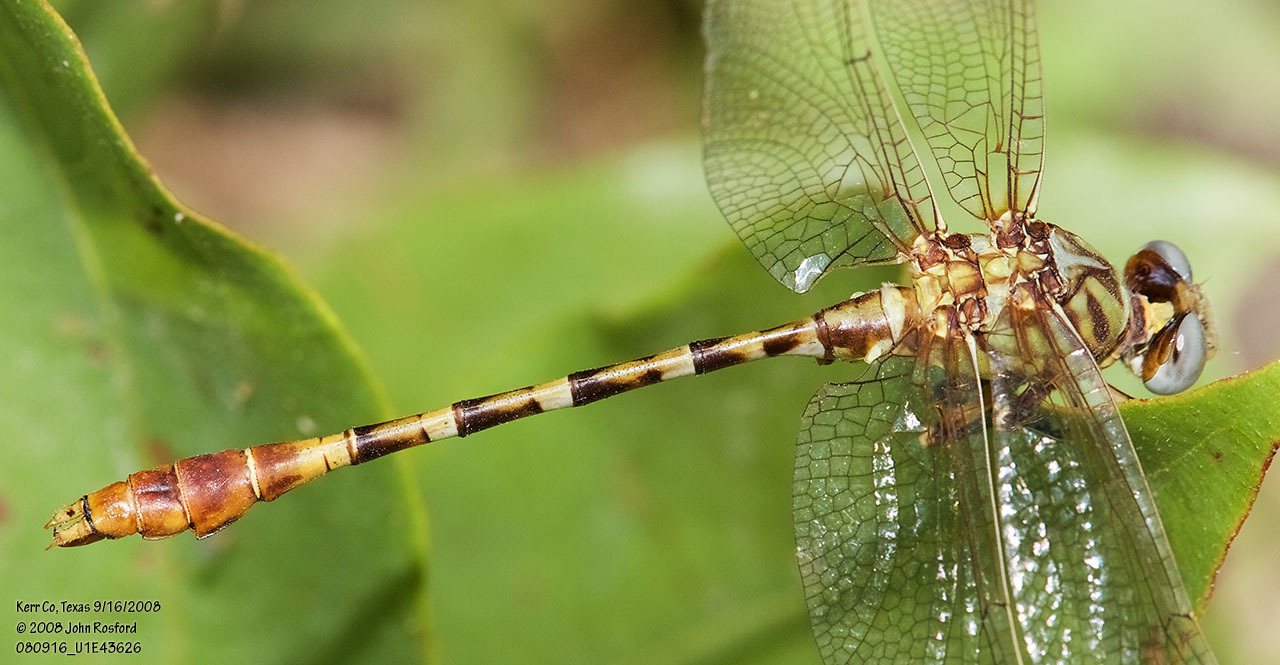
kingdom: Animalia
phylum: Arthropoda
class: Insecta
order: Odonata
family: Gomphidae
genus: Erpetogomphus
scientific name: Erpetogomphus designatus
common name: Eastern ringtail
